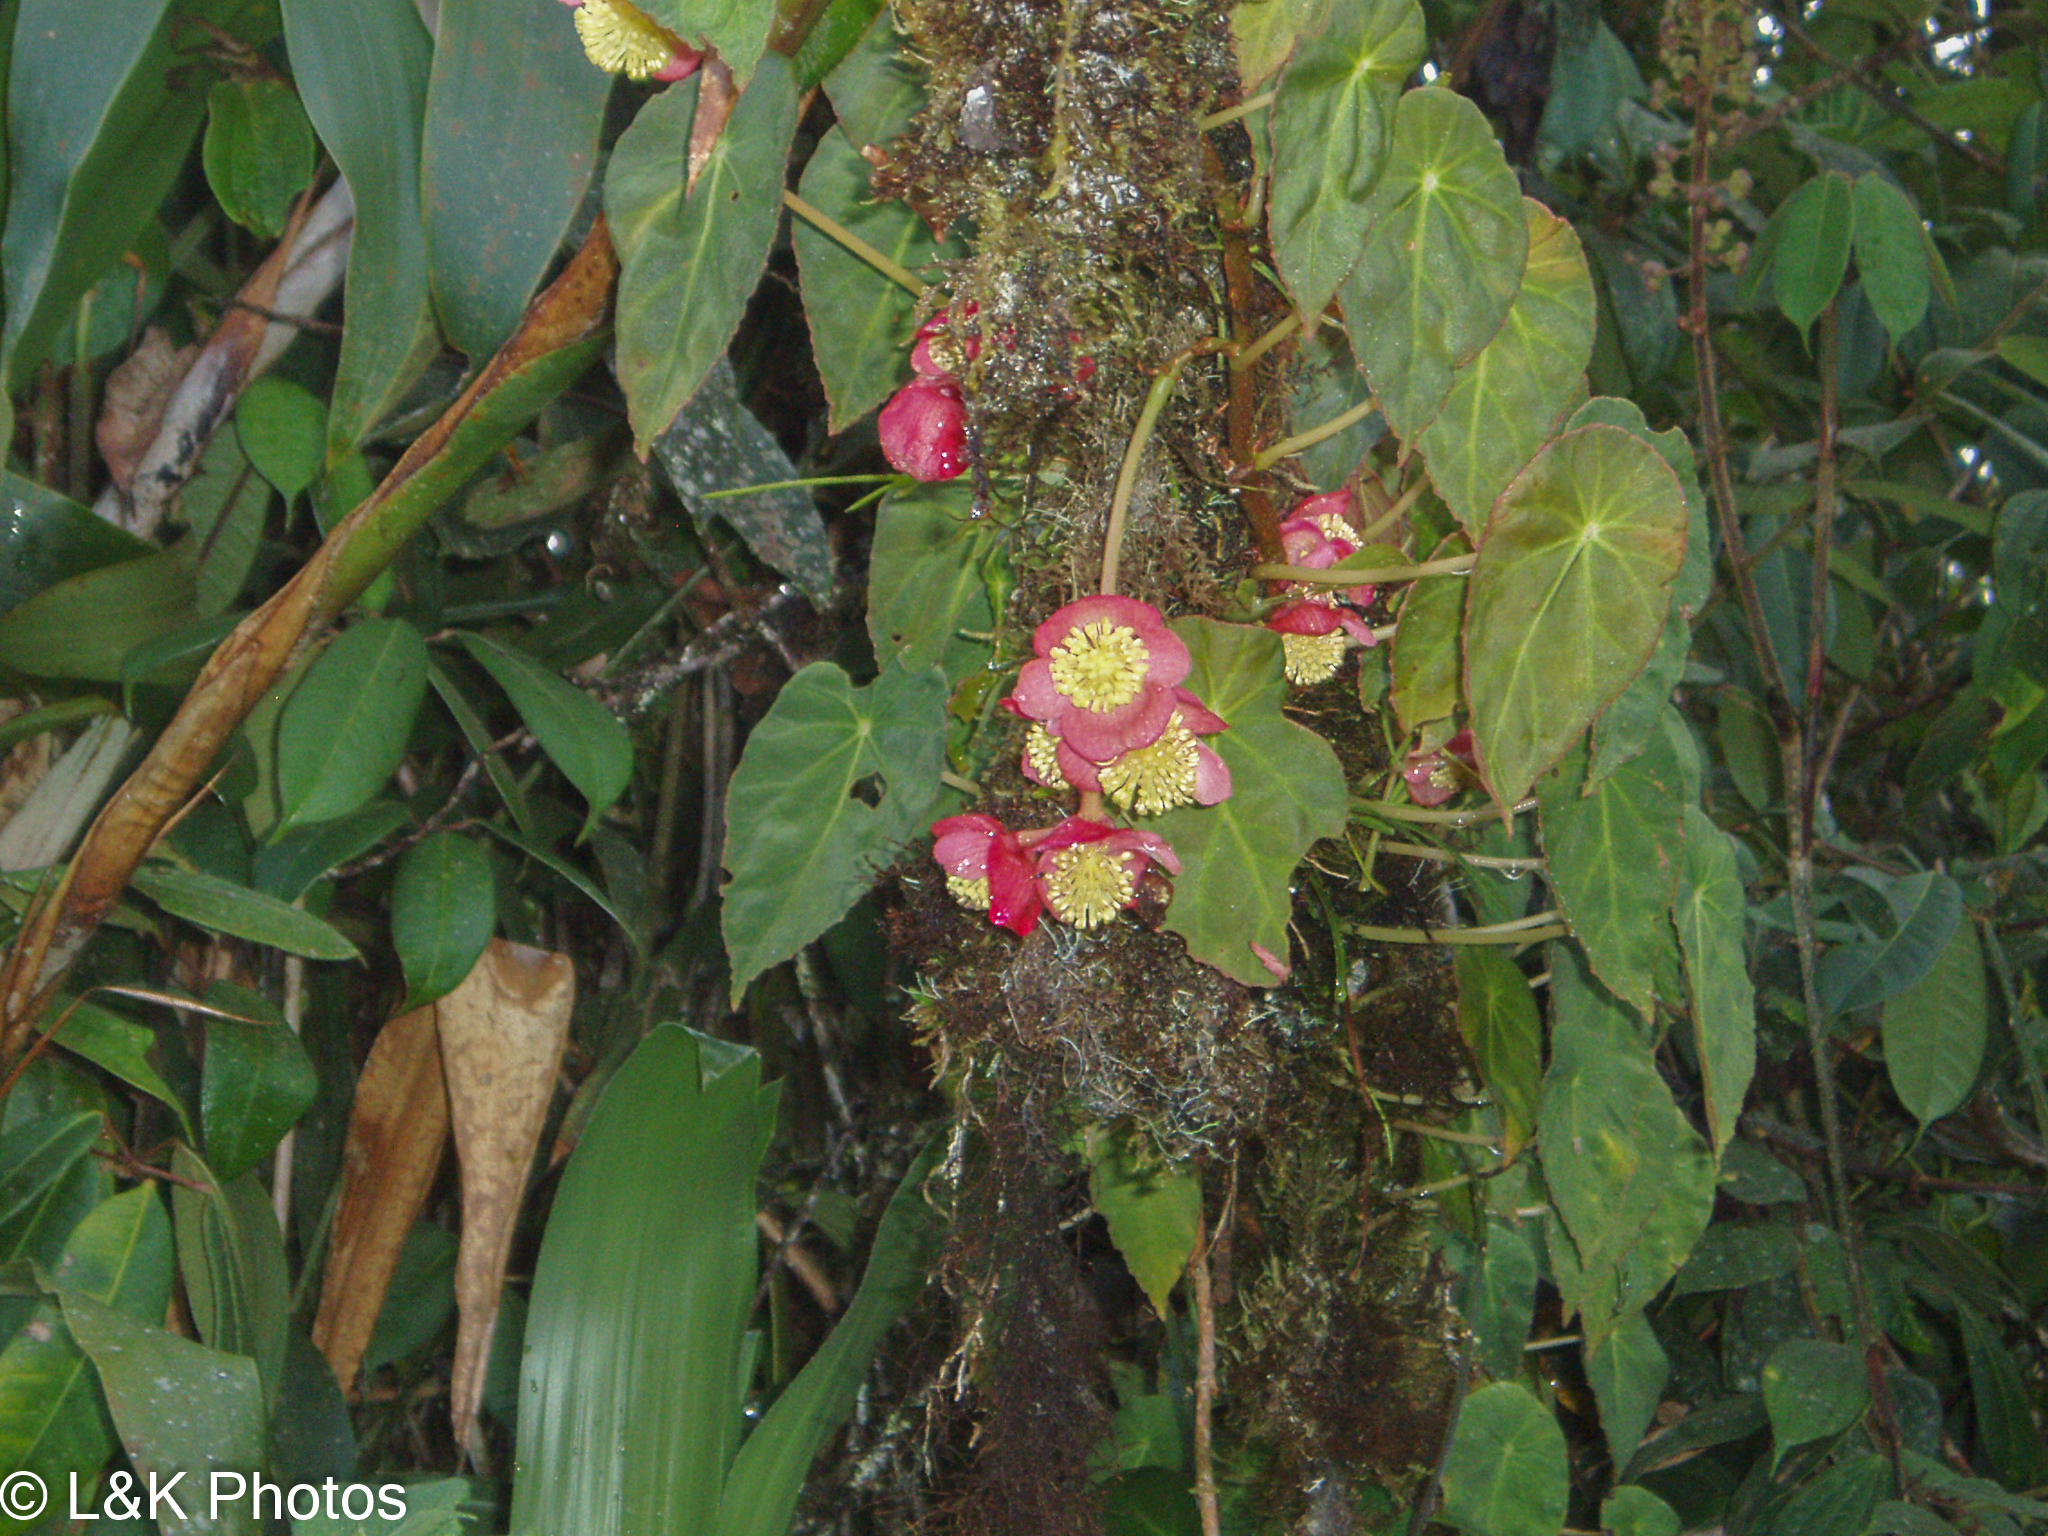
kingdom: Plantae
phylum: Tracheophyta
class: Magnoliopsida
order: Cucurbitales
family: Begoniaceae
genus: Begonia
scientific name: Begonia pululahuana
